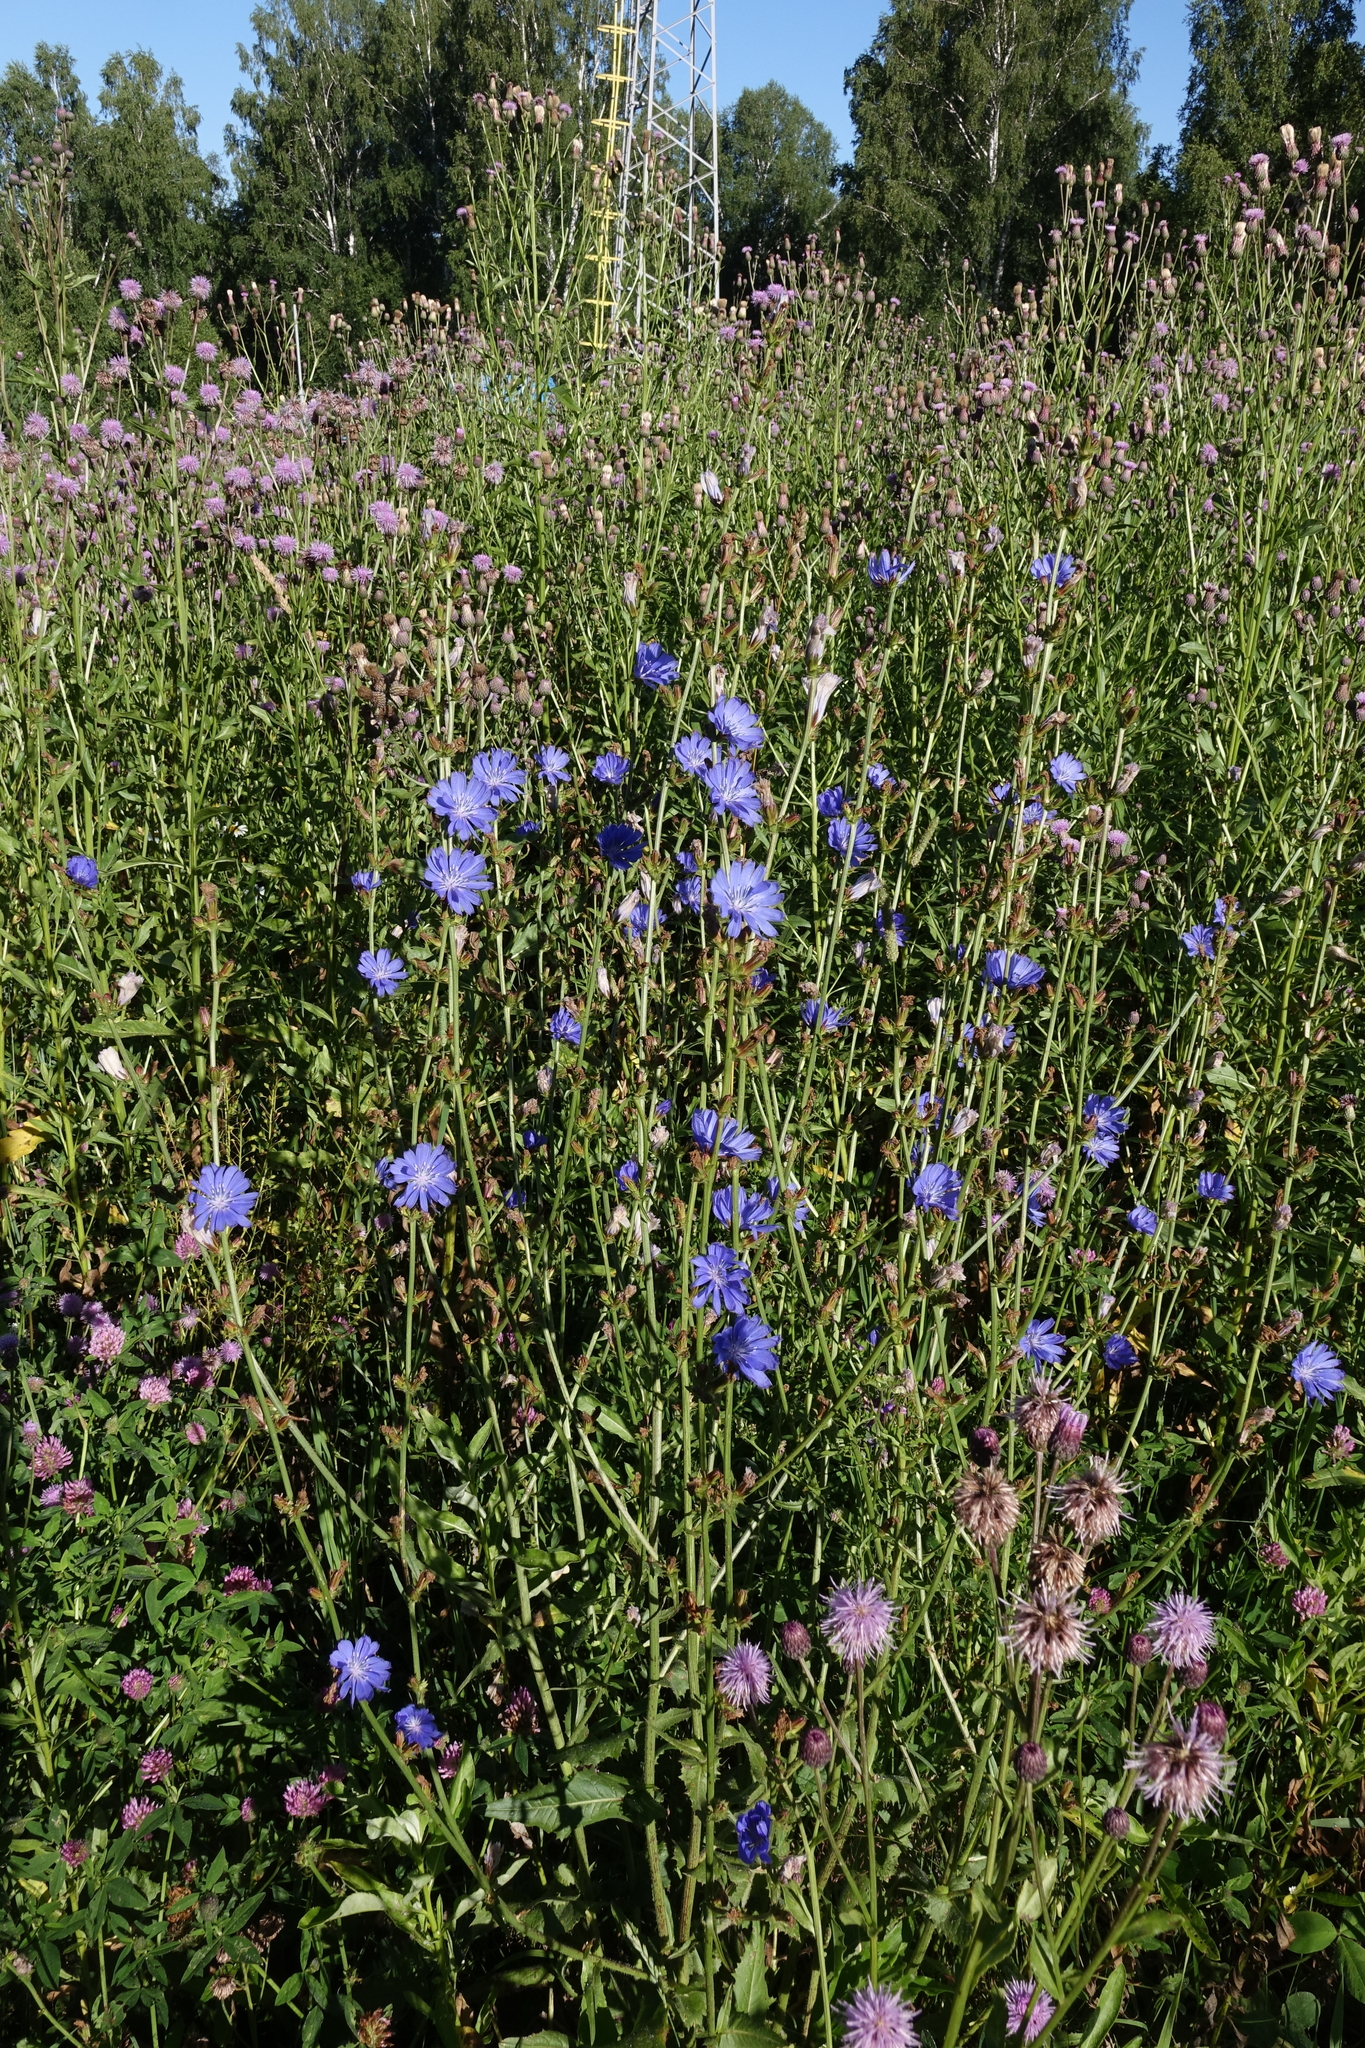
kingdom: Plantae
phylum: Tracheophyta
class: Magnoliopsida
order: Asterales
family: Asteraceae
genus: Cichorium
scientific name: Cichorium intybus
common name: Chicory
